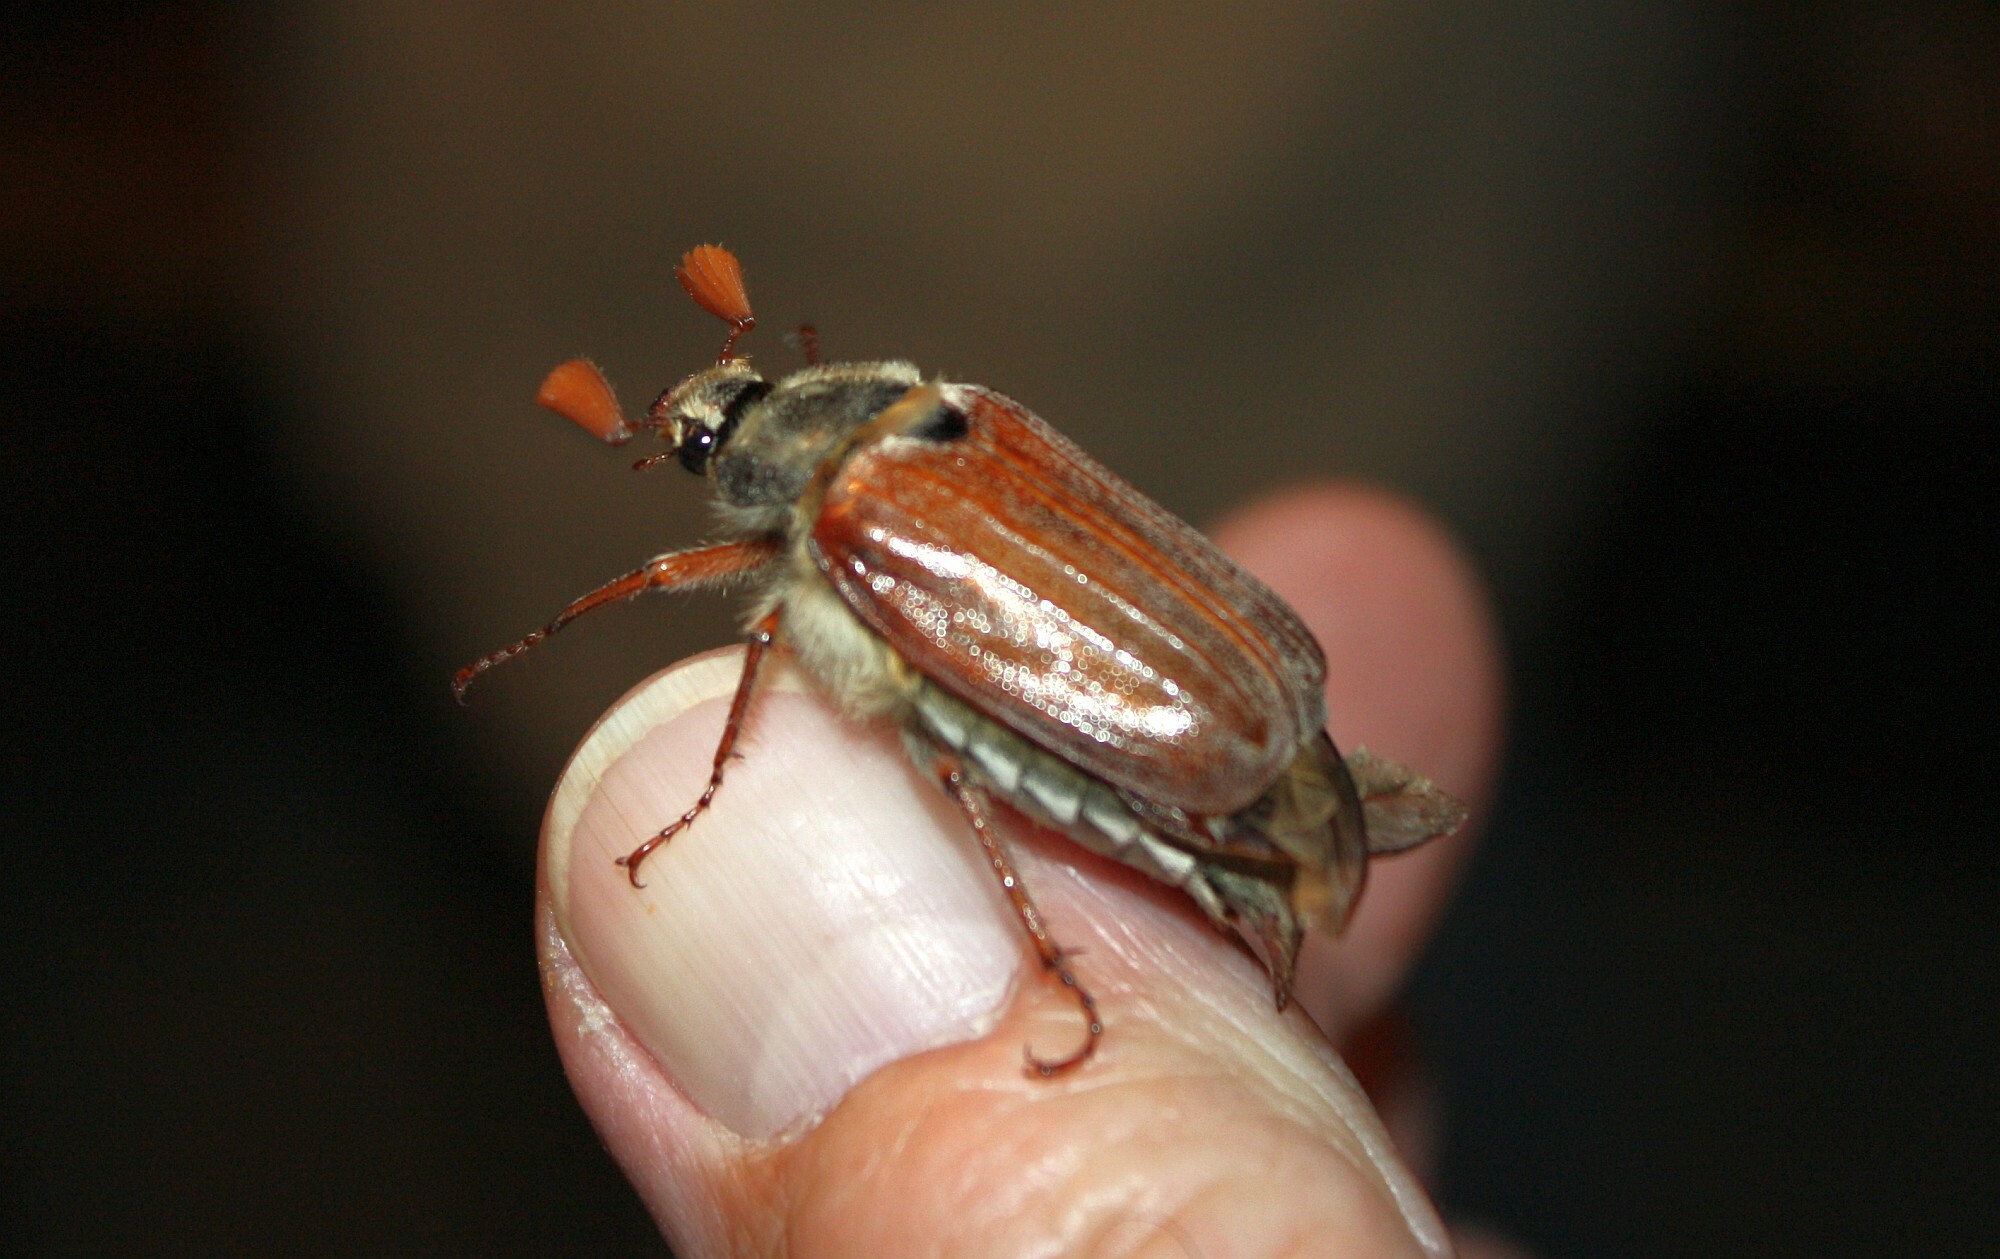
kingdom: Animalia
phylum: Arthropoda
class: Insecta
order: Coleoptera
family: Scarabaeidae
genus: Melolontha
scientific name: Melolontha melolontha
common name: Cockchafer maybeetle
